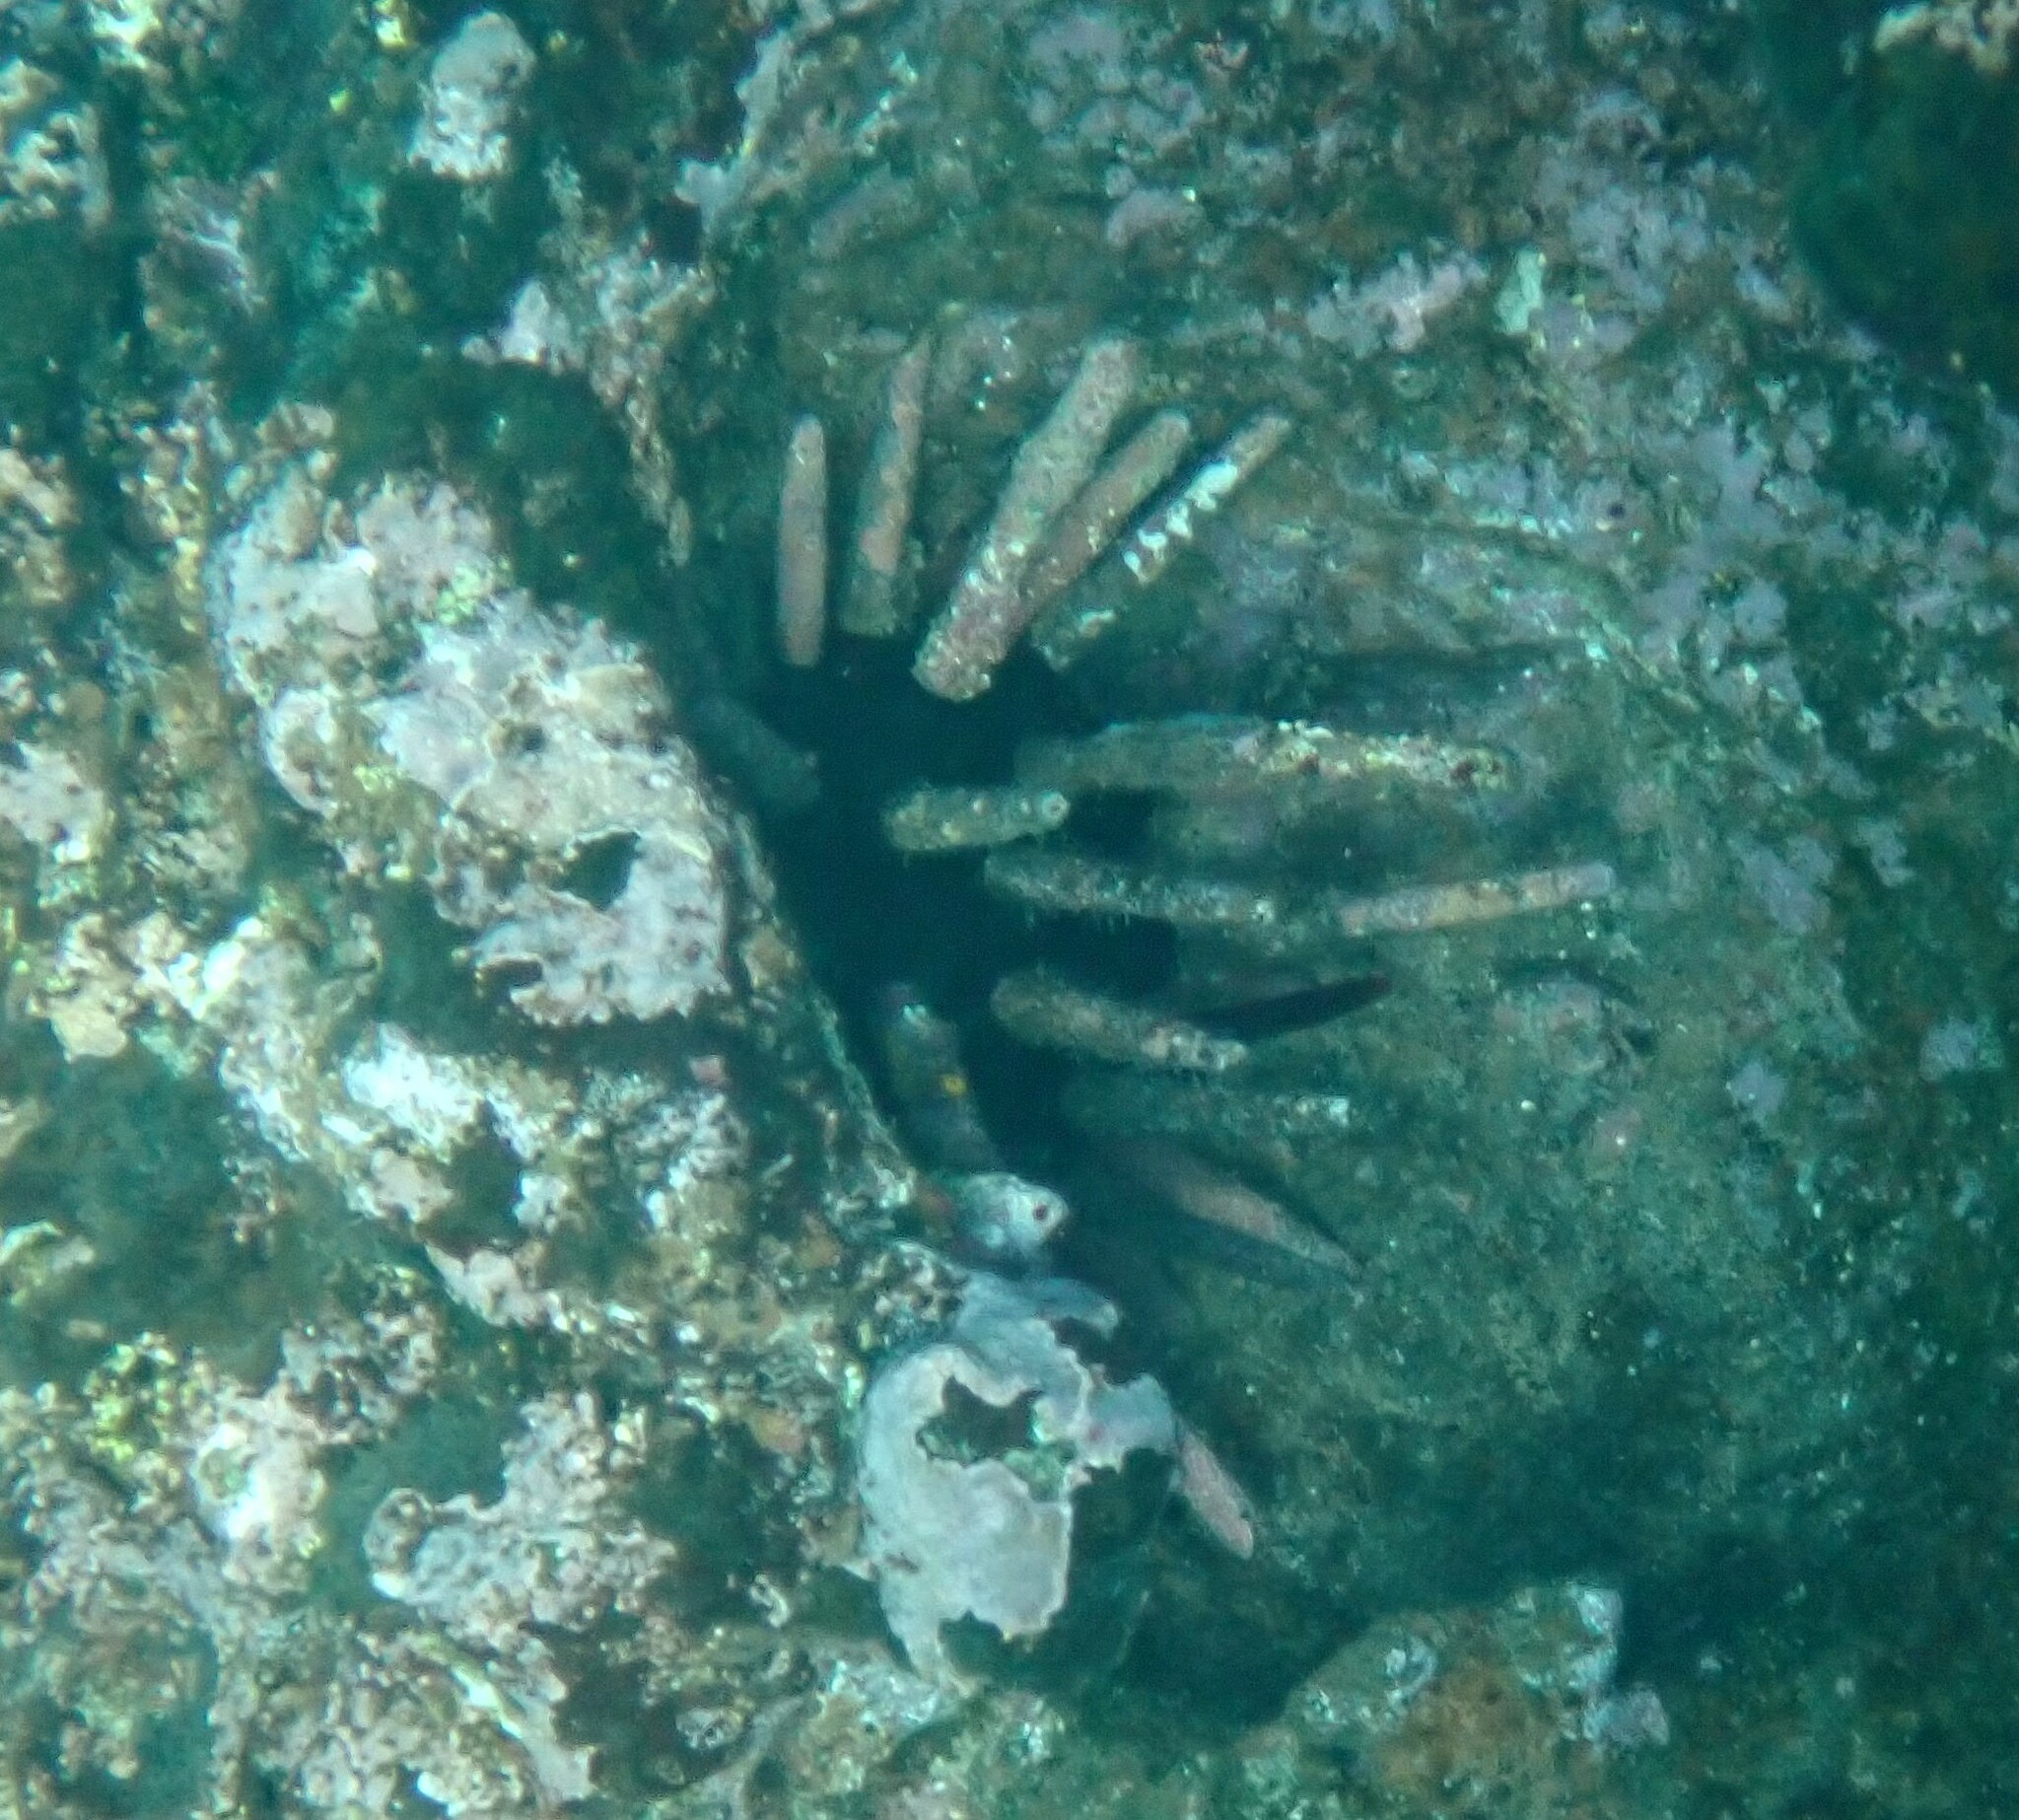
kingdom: Animalia
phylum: Echinodermata
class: Echinoidea
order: Cidaroida
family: Cidaridae
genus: Eucidaris
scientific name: Eucidaris galapagensis
